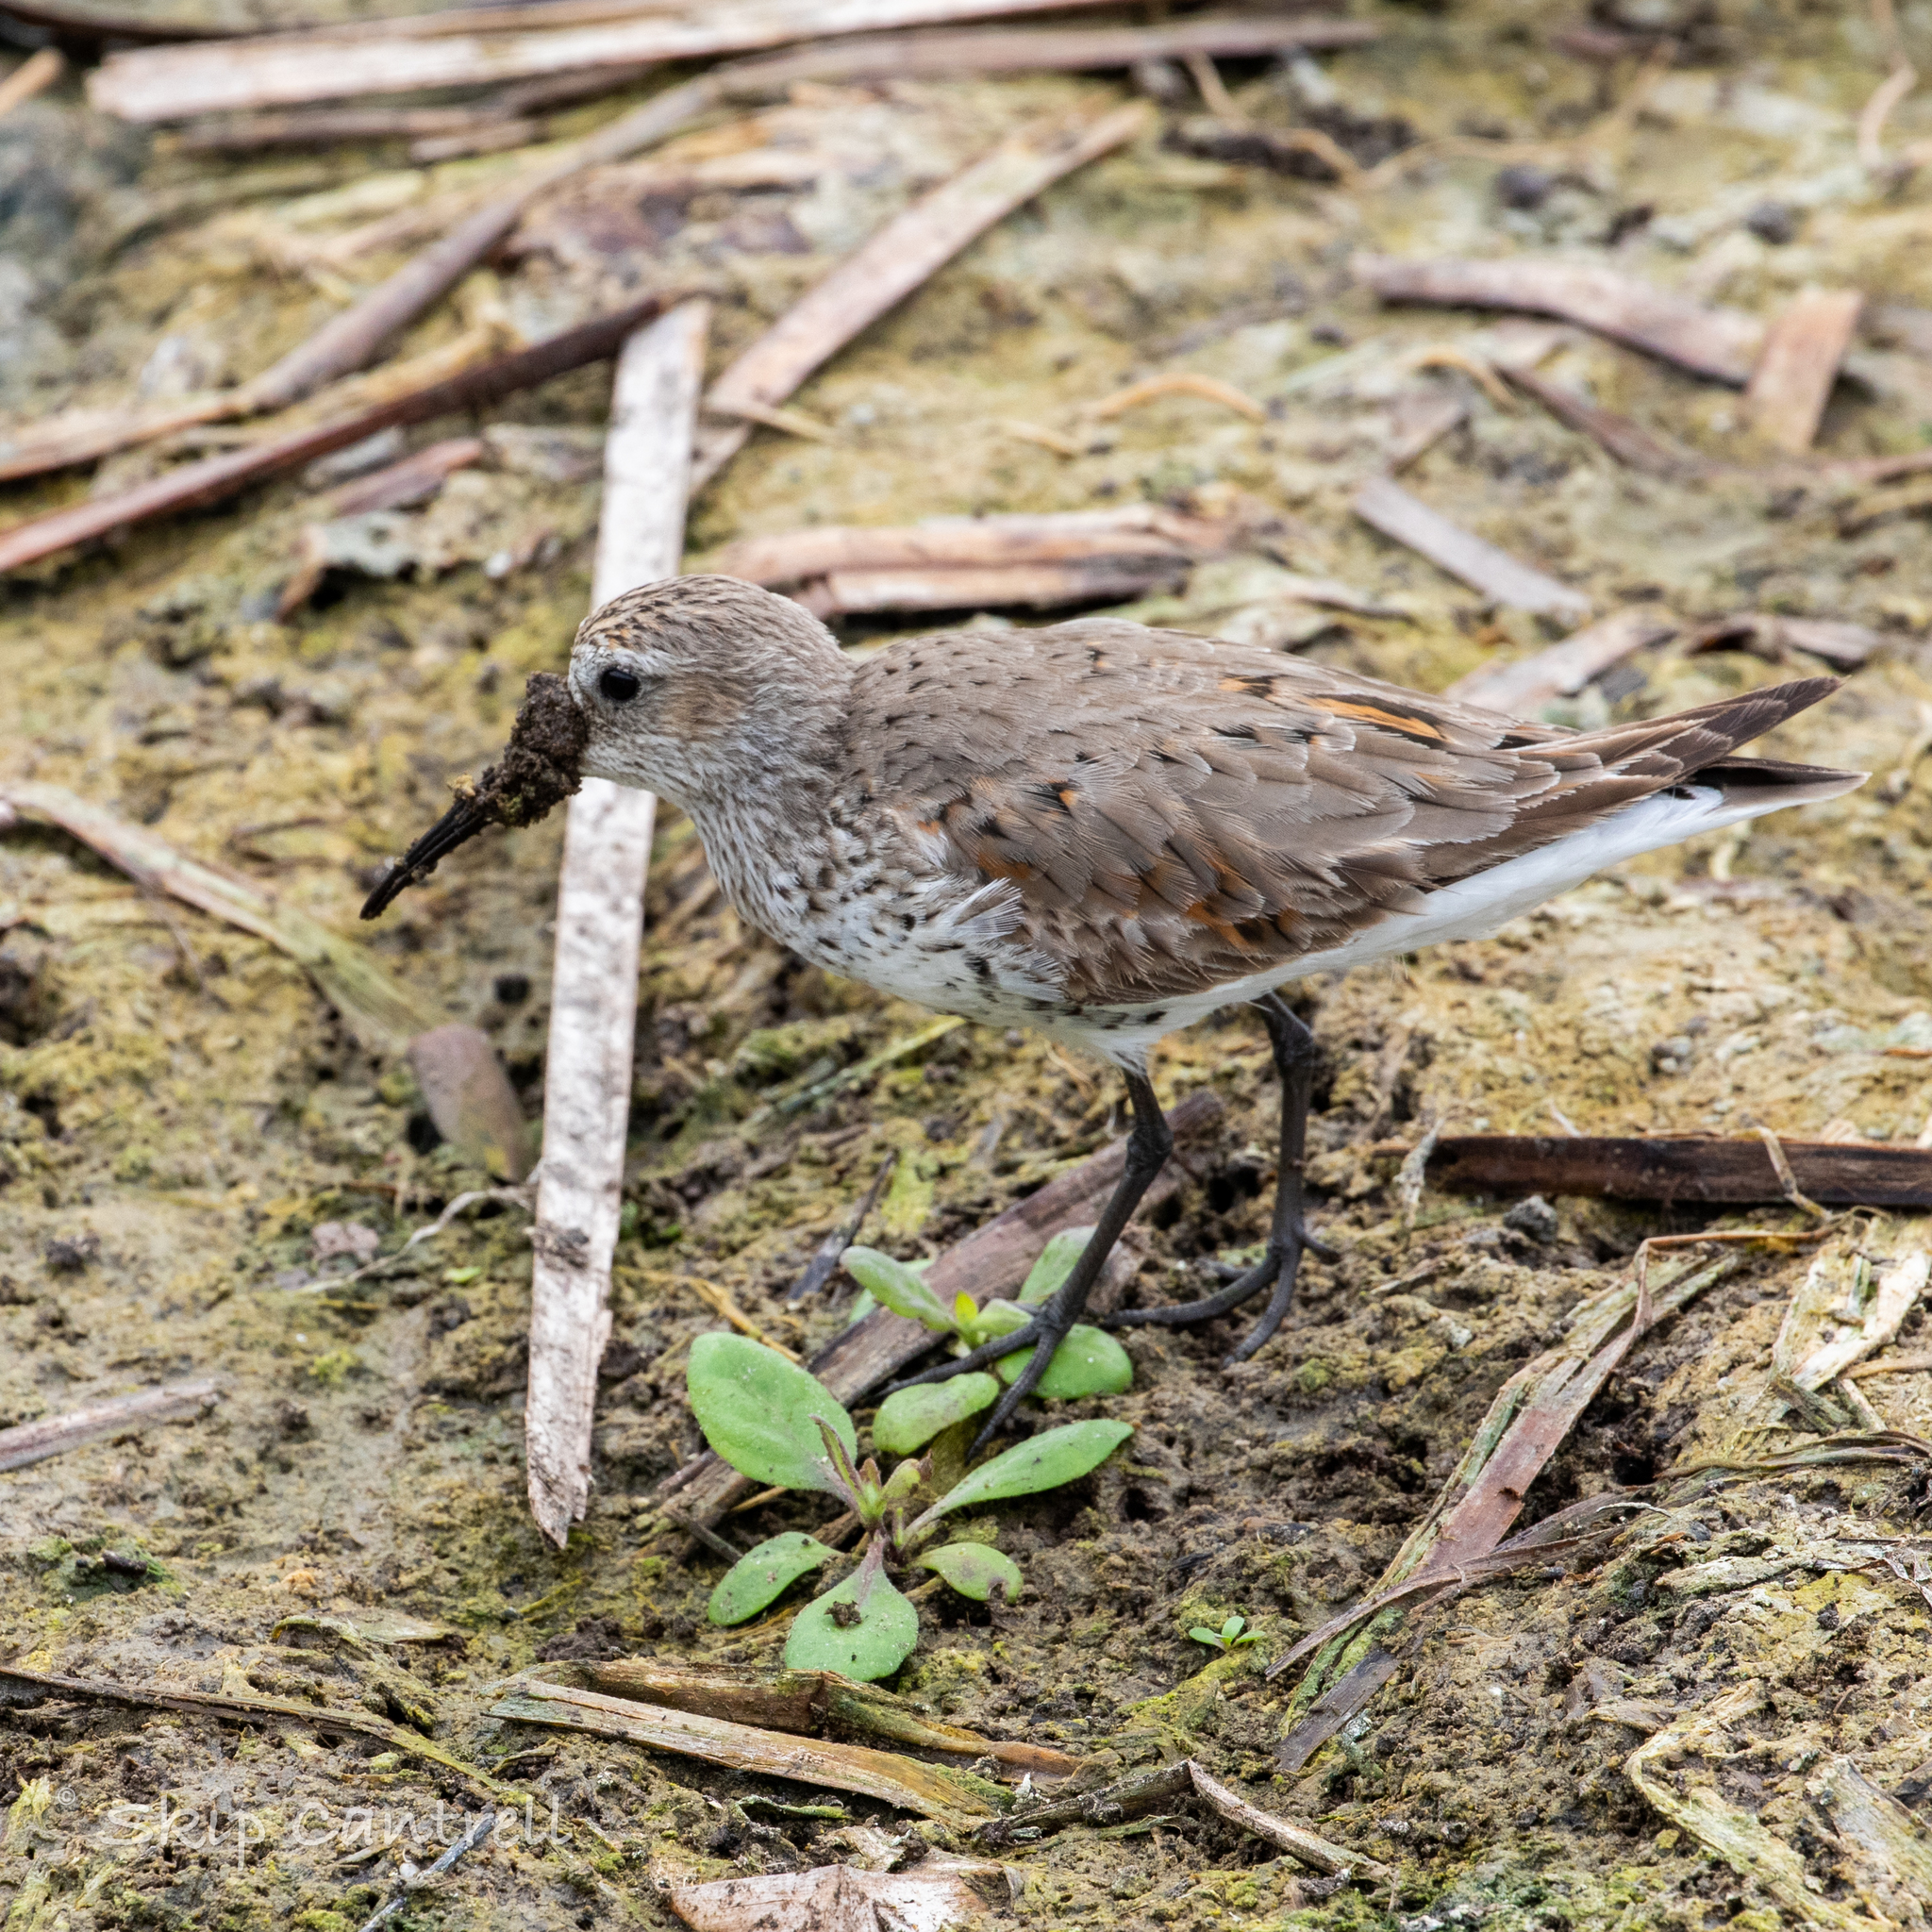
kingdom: Animalia
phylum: Chordata
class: Aves
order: Charadriiformes
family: Scolopacidae
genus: Calidris
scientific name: Calidris alpina
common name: Dunlin
